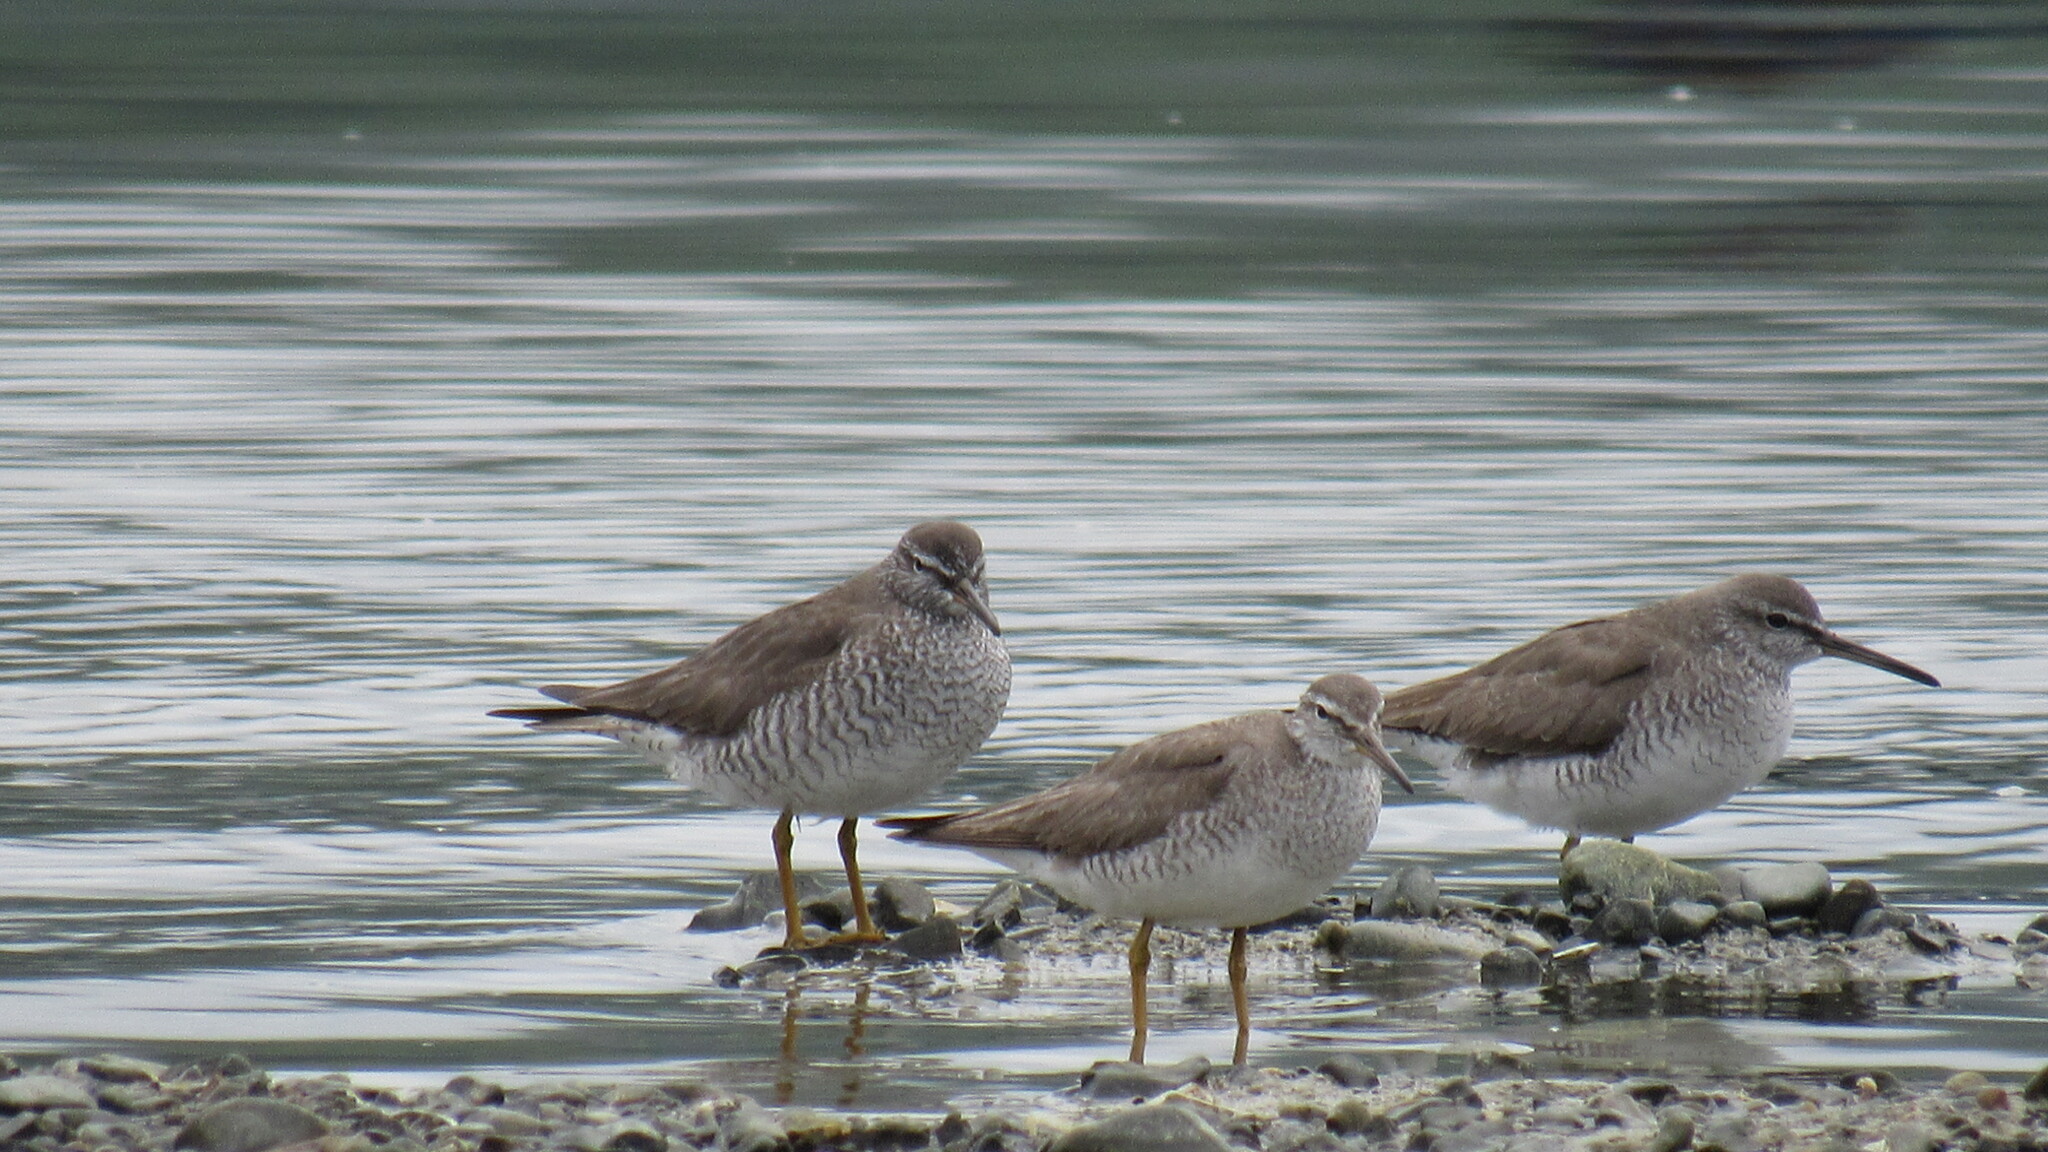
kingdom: Animalia
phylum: Chordata
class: Aves
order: Charadriiformes
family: Scolopacidae
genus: Tringa
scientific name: Tringa brevipes
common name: Grey-tailed tattler
